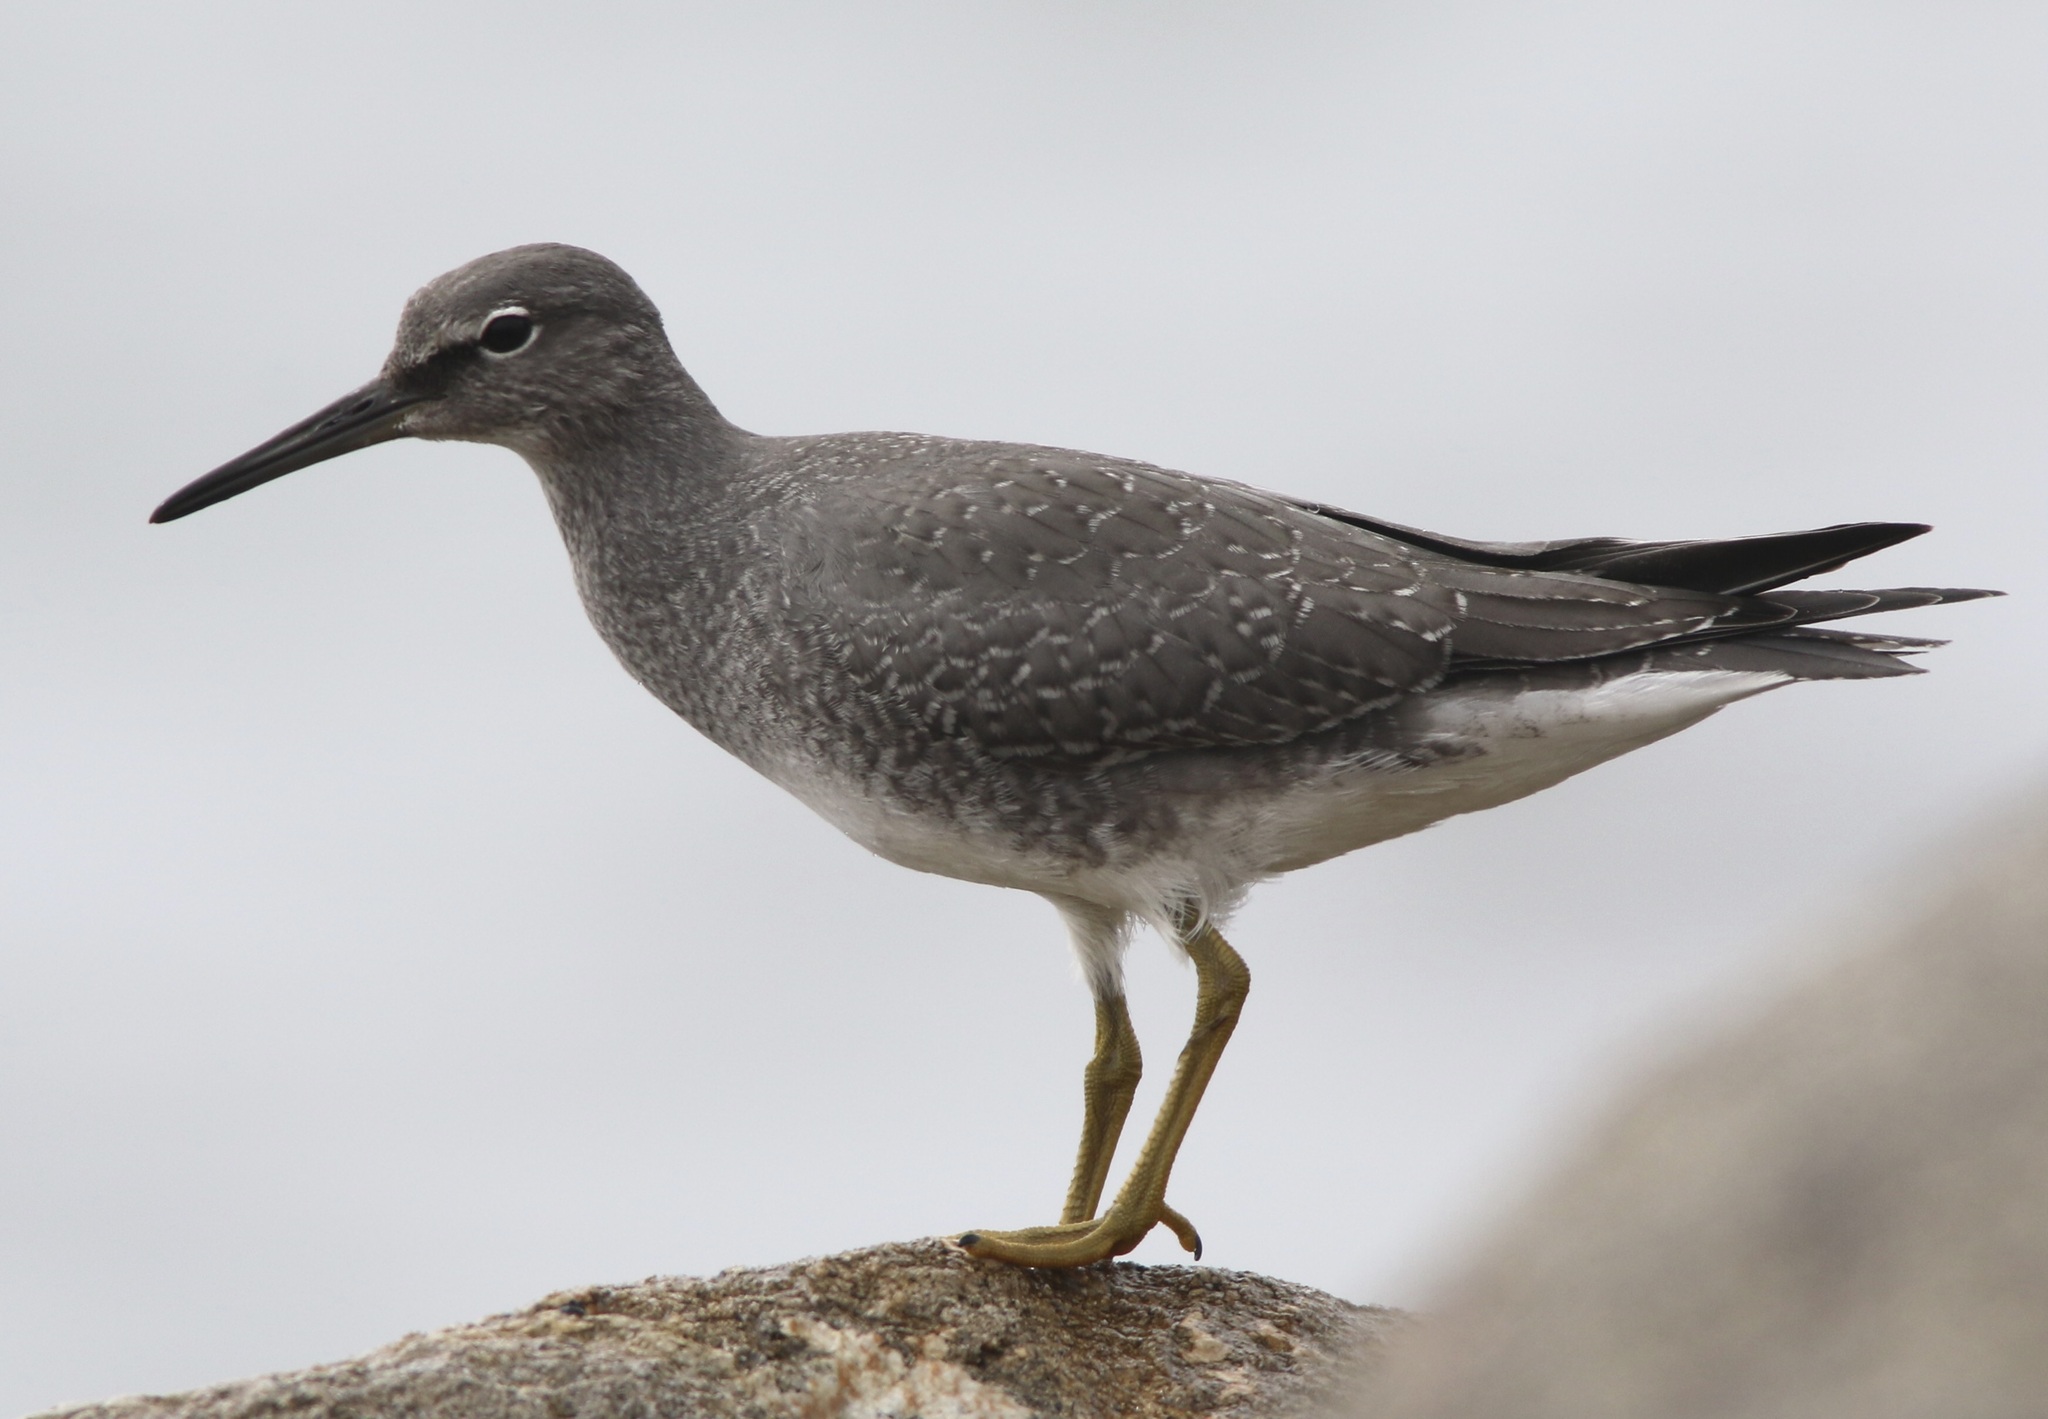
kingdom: Animalia
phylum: Chordata
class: Aves
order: Charadriiformes
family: Scolopacidae
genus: Tringa
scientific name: Tringa incana
